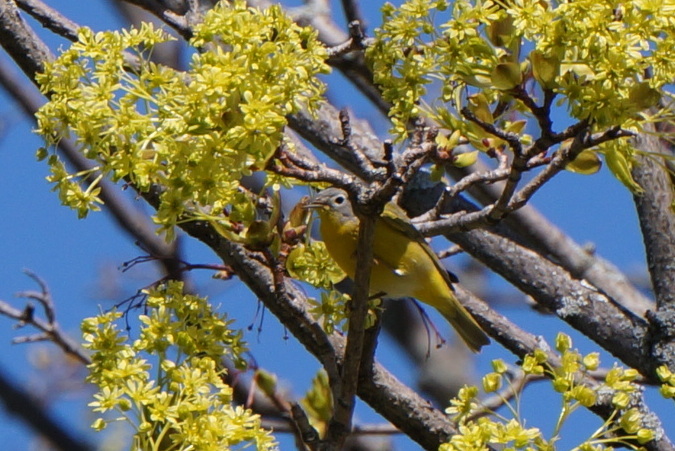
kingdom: Animalia
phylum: Chordata
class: Aves
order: Passeriformes
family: Parulidae
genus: Leiothlypis
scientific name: Leiothlypis ruficapilla
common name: Nashville warbler
